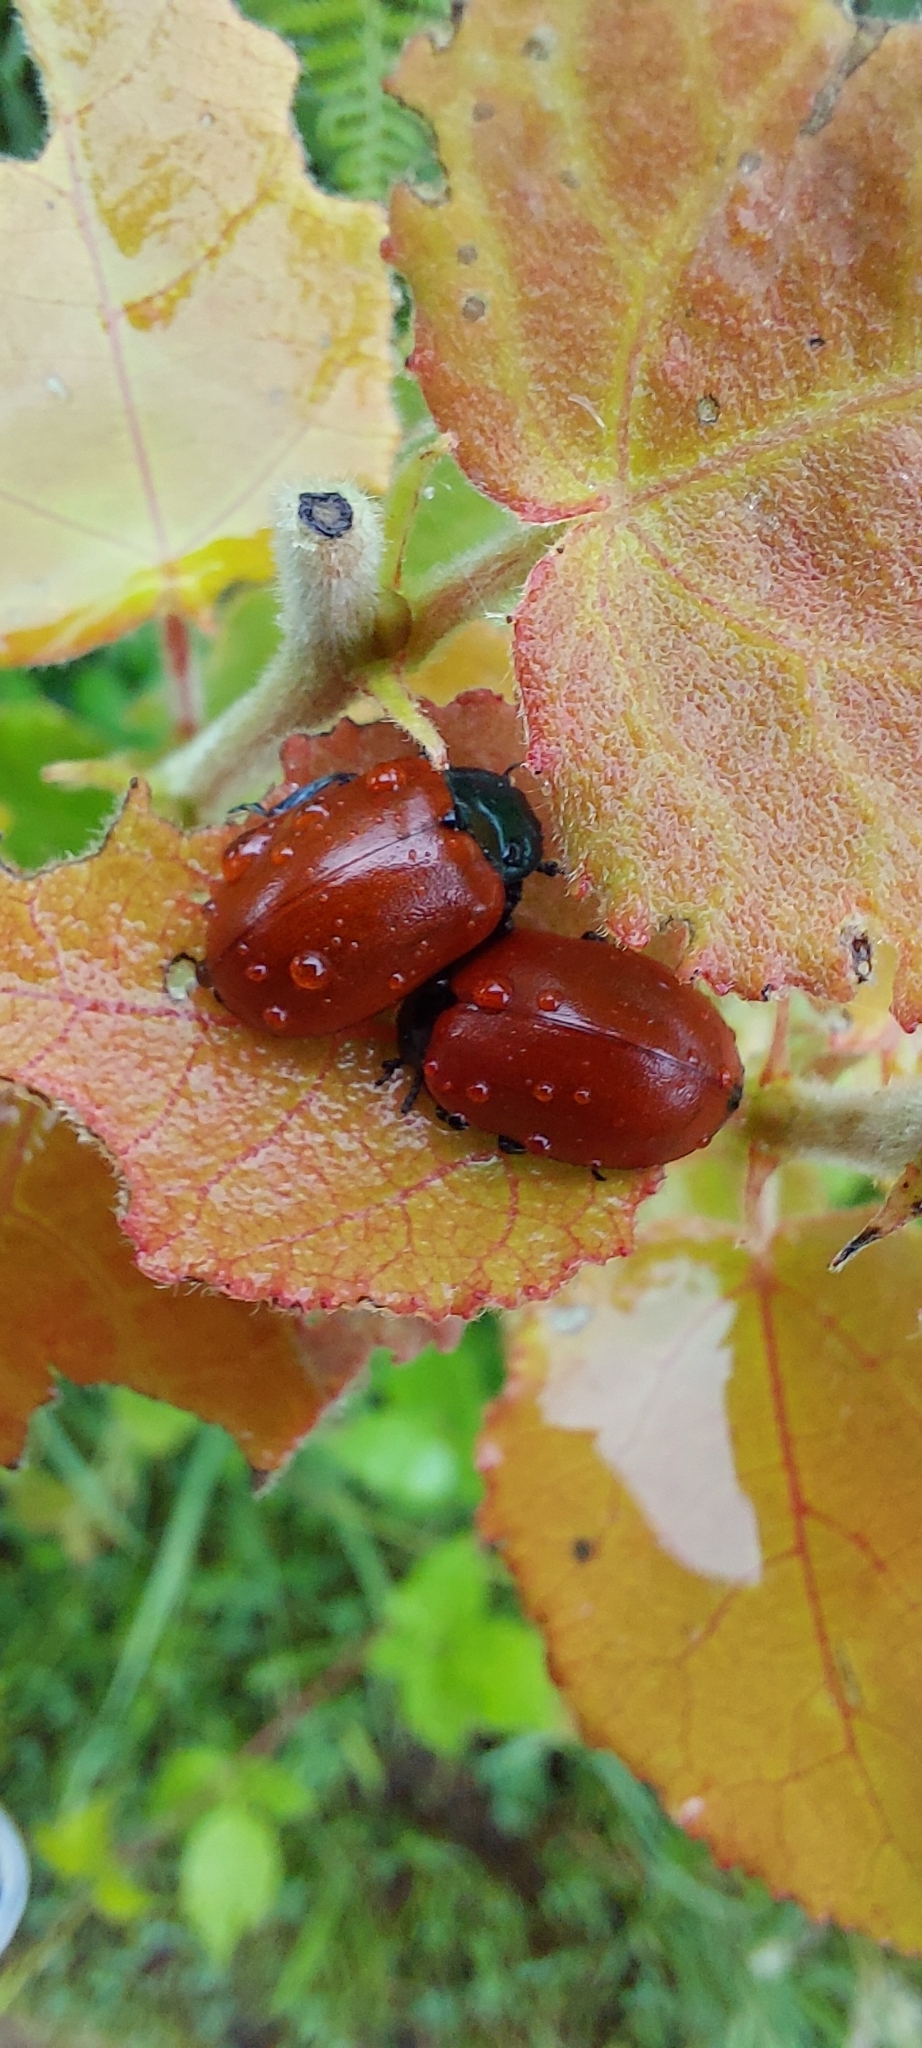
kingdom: Animalia
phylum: Arthropoda
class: Insecta
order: Coleoptera
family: Chrysomelidae
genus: Chrysomela
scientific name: Chrysomela populi
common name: Red poplar leaf beetle
